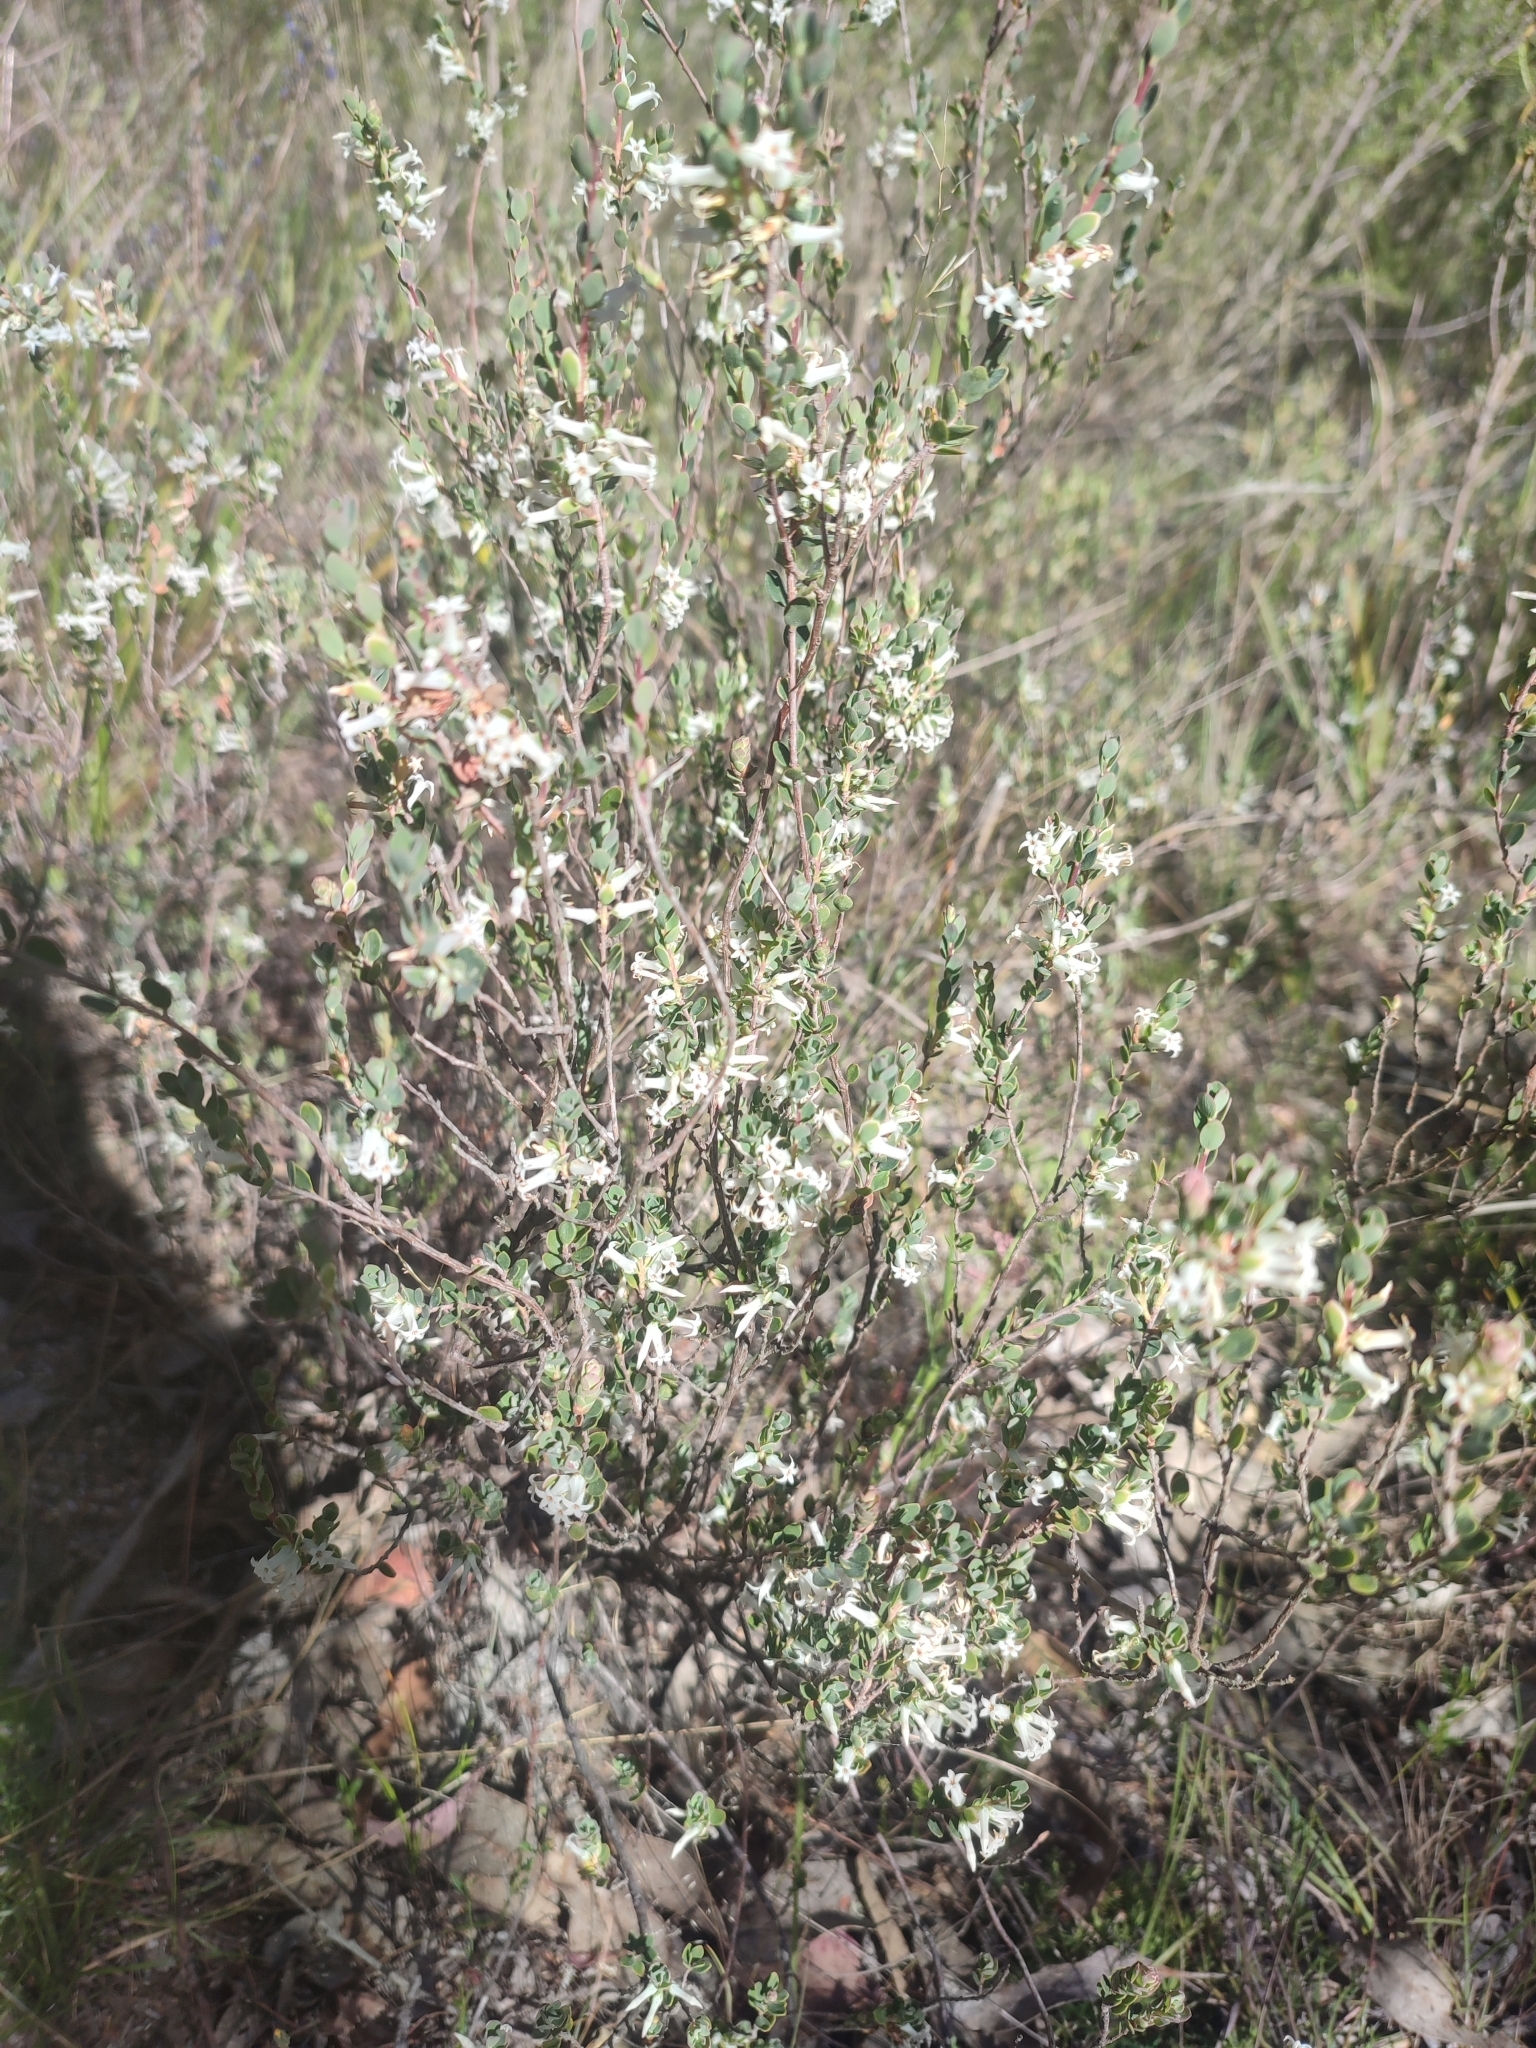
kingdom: Plantae
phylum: Tracheophyta
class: Magnoliopsida
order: Ericales
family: Ericaceae
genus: Brachyloma
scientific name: Brachyloma daphnoides
